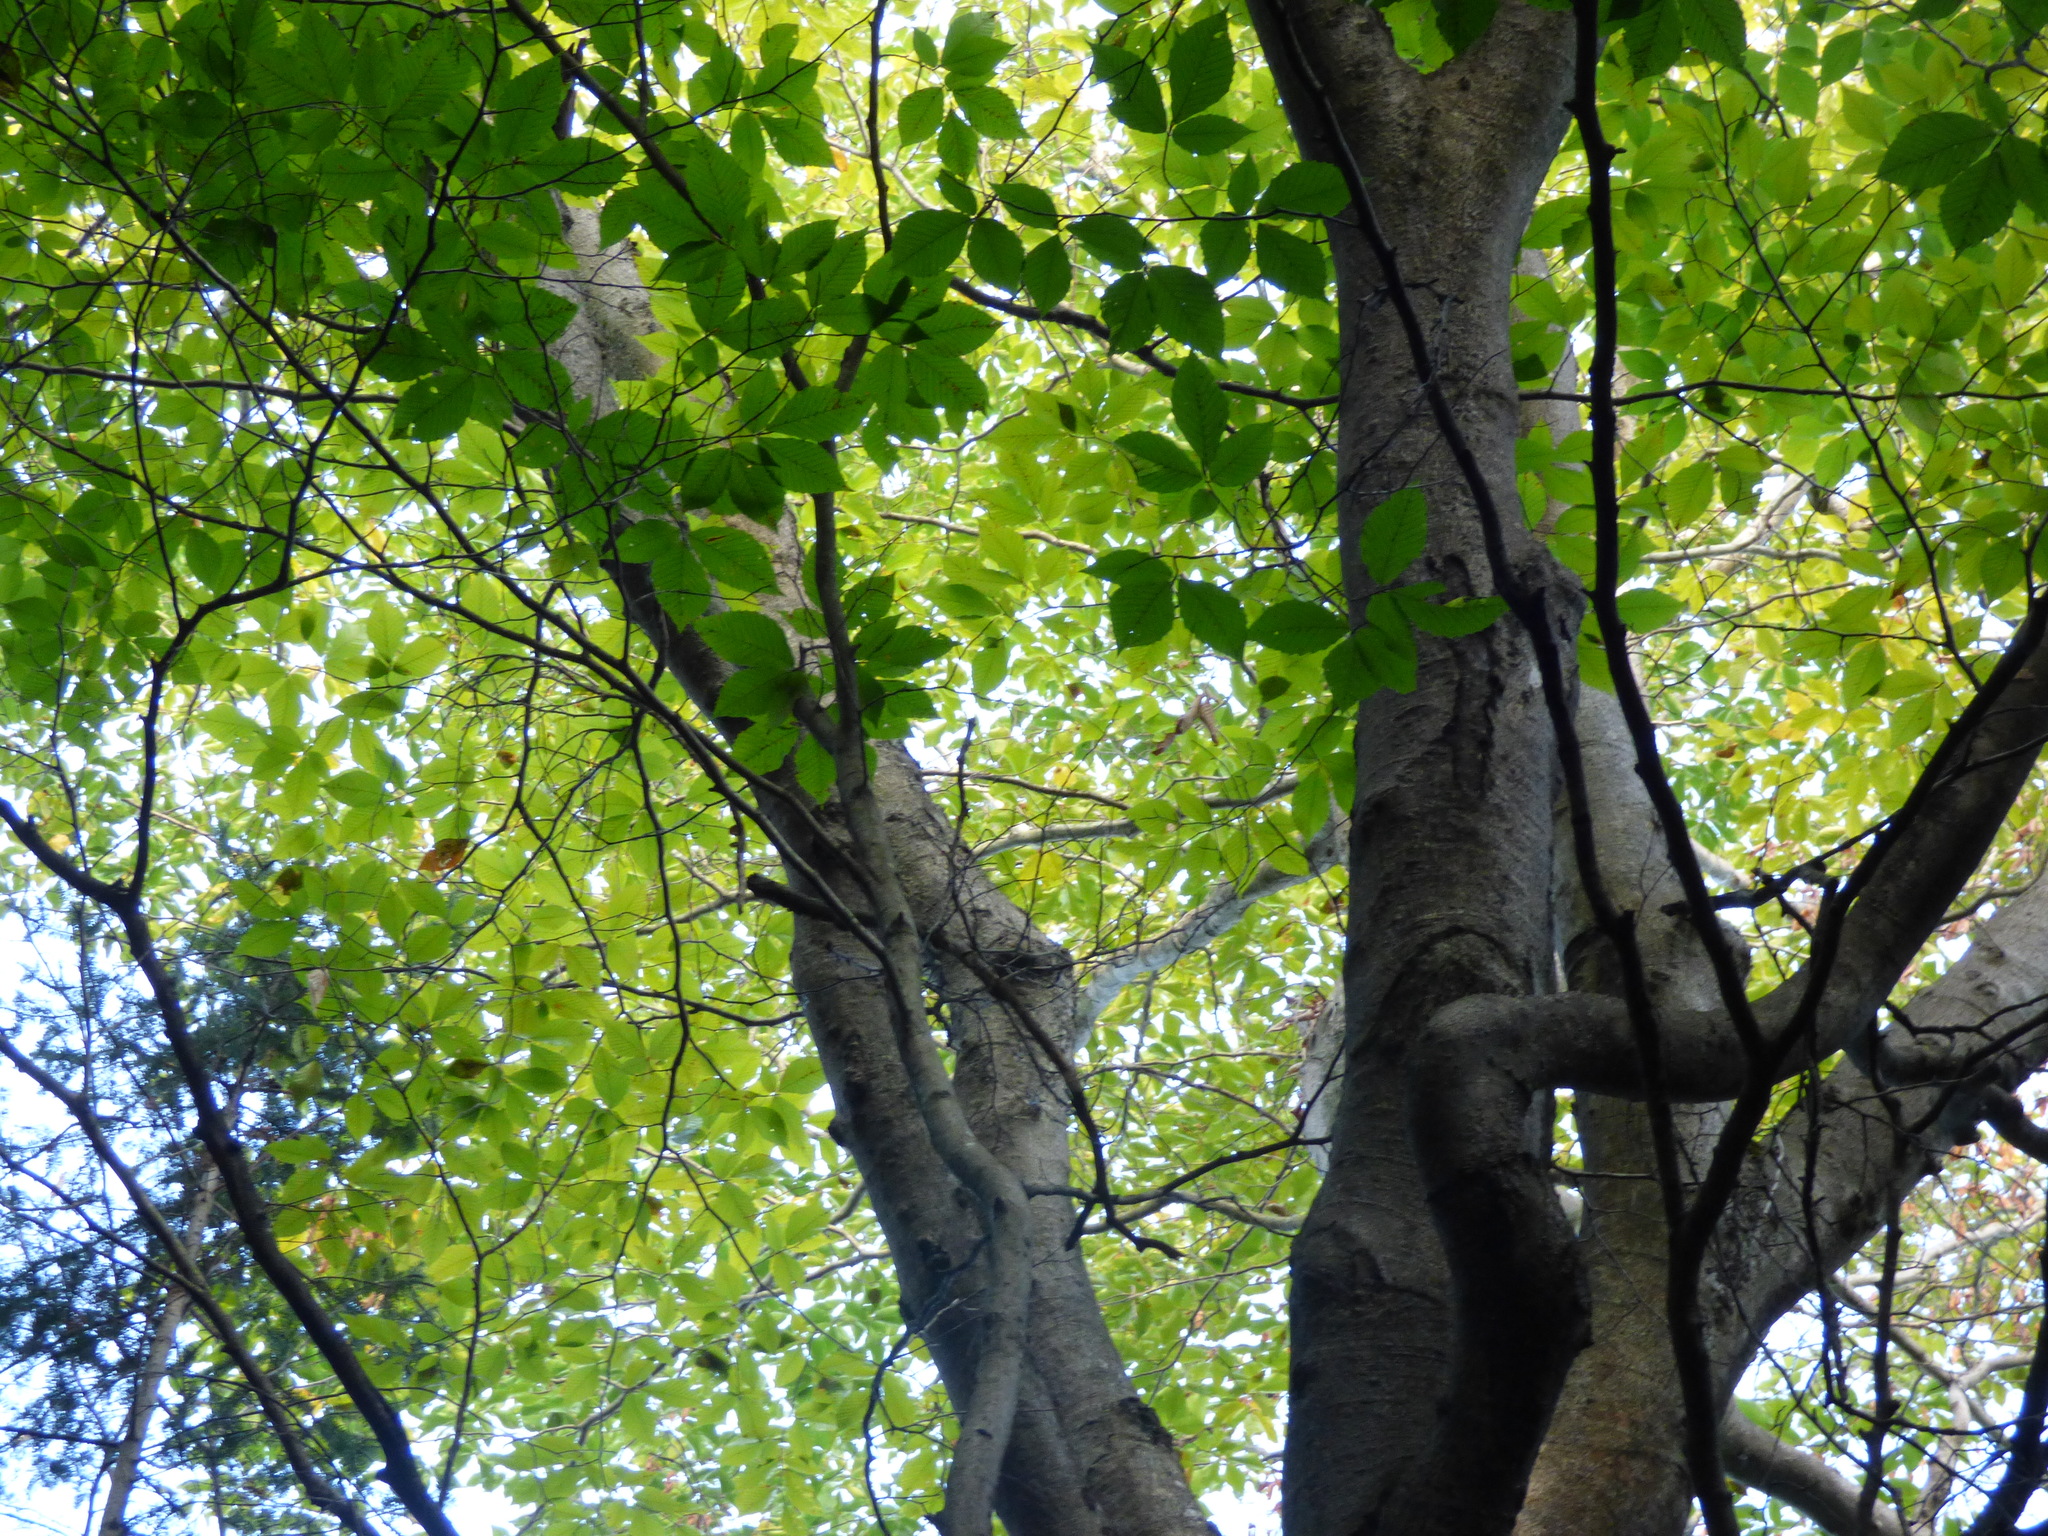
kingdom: Plantae
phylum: Tracheophyta
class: Magnoliopsida
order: Fagales
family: Fagaceae
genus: Fagus
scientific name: Fagus grandifolia
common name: American beech
